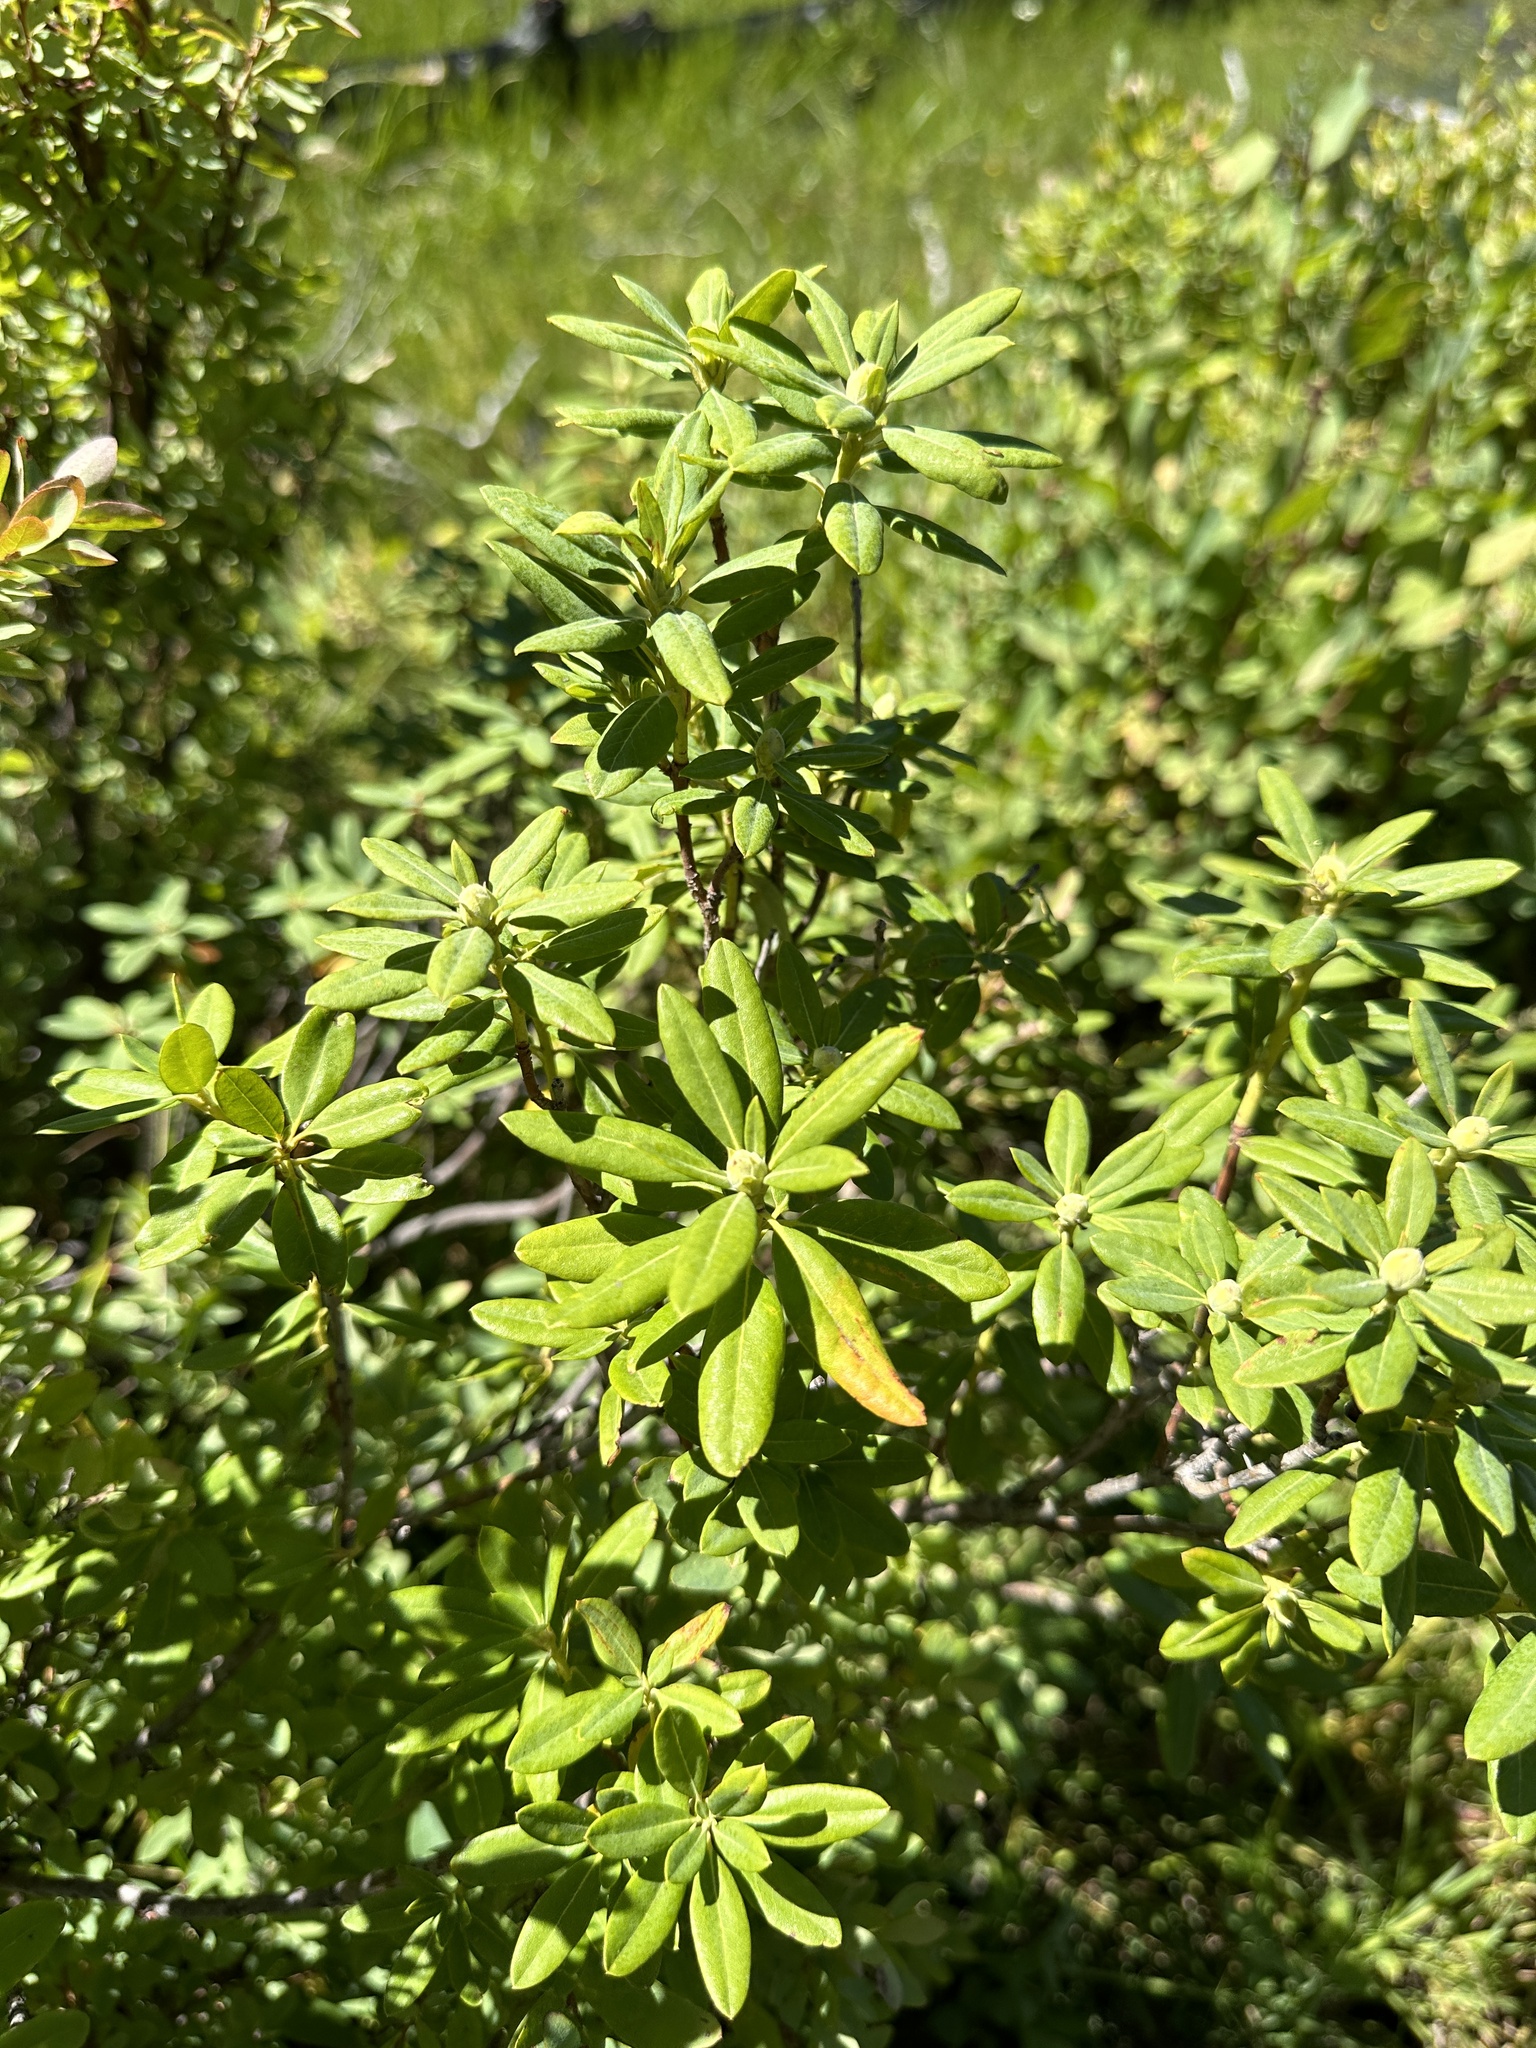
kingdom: Plantae
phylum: Tracheophyta
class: Magnoliopsida
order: Ericales
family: Ericaceae
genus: Rhododendron
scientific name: Rhododendron columbianum
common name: Western labrador tea
